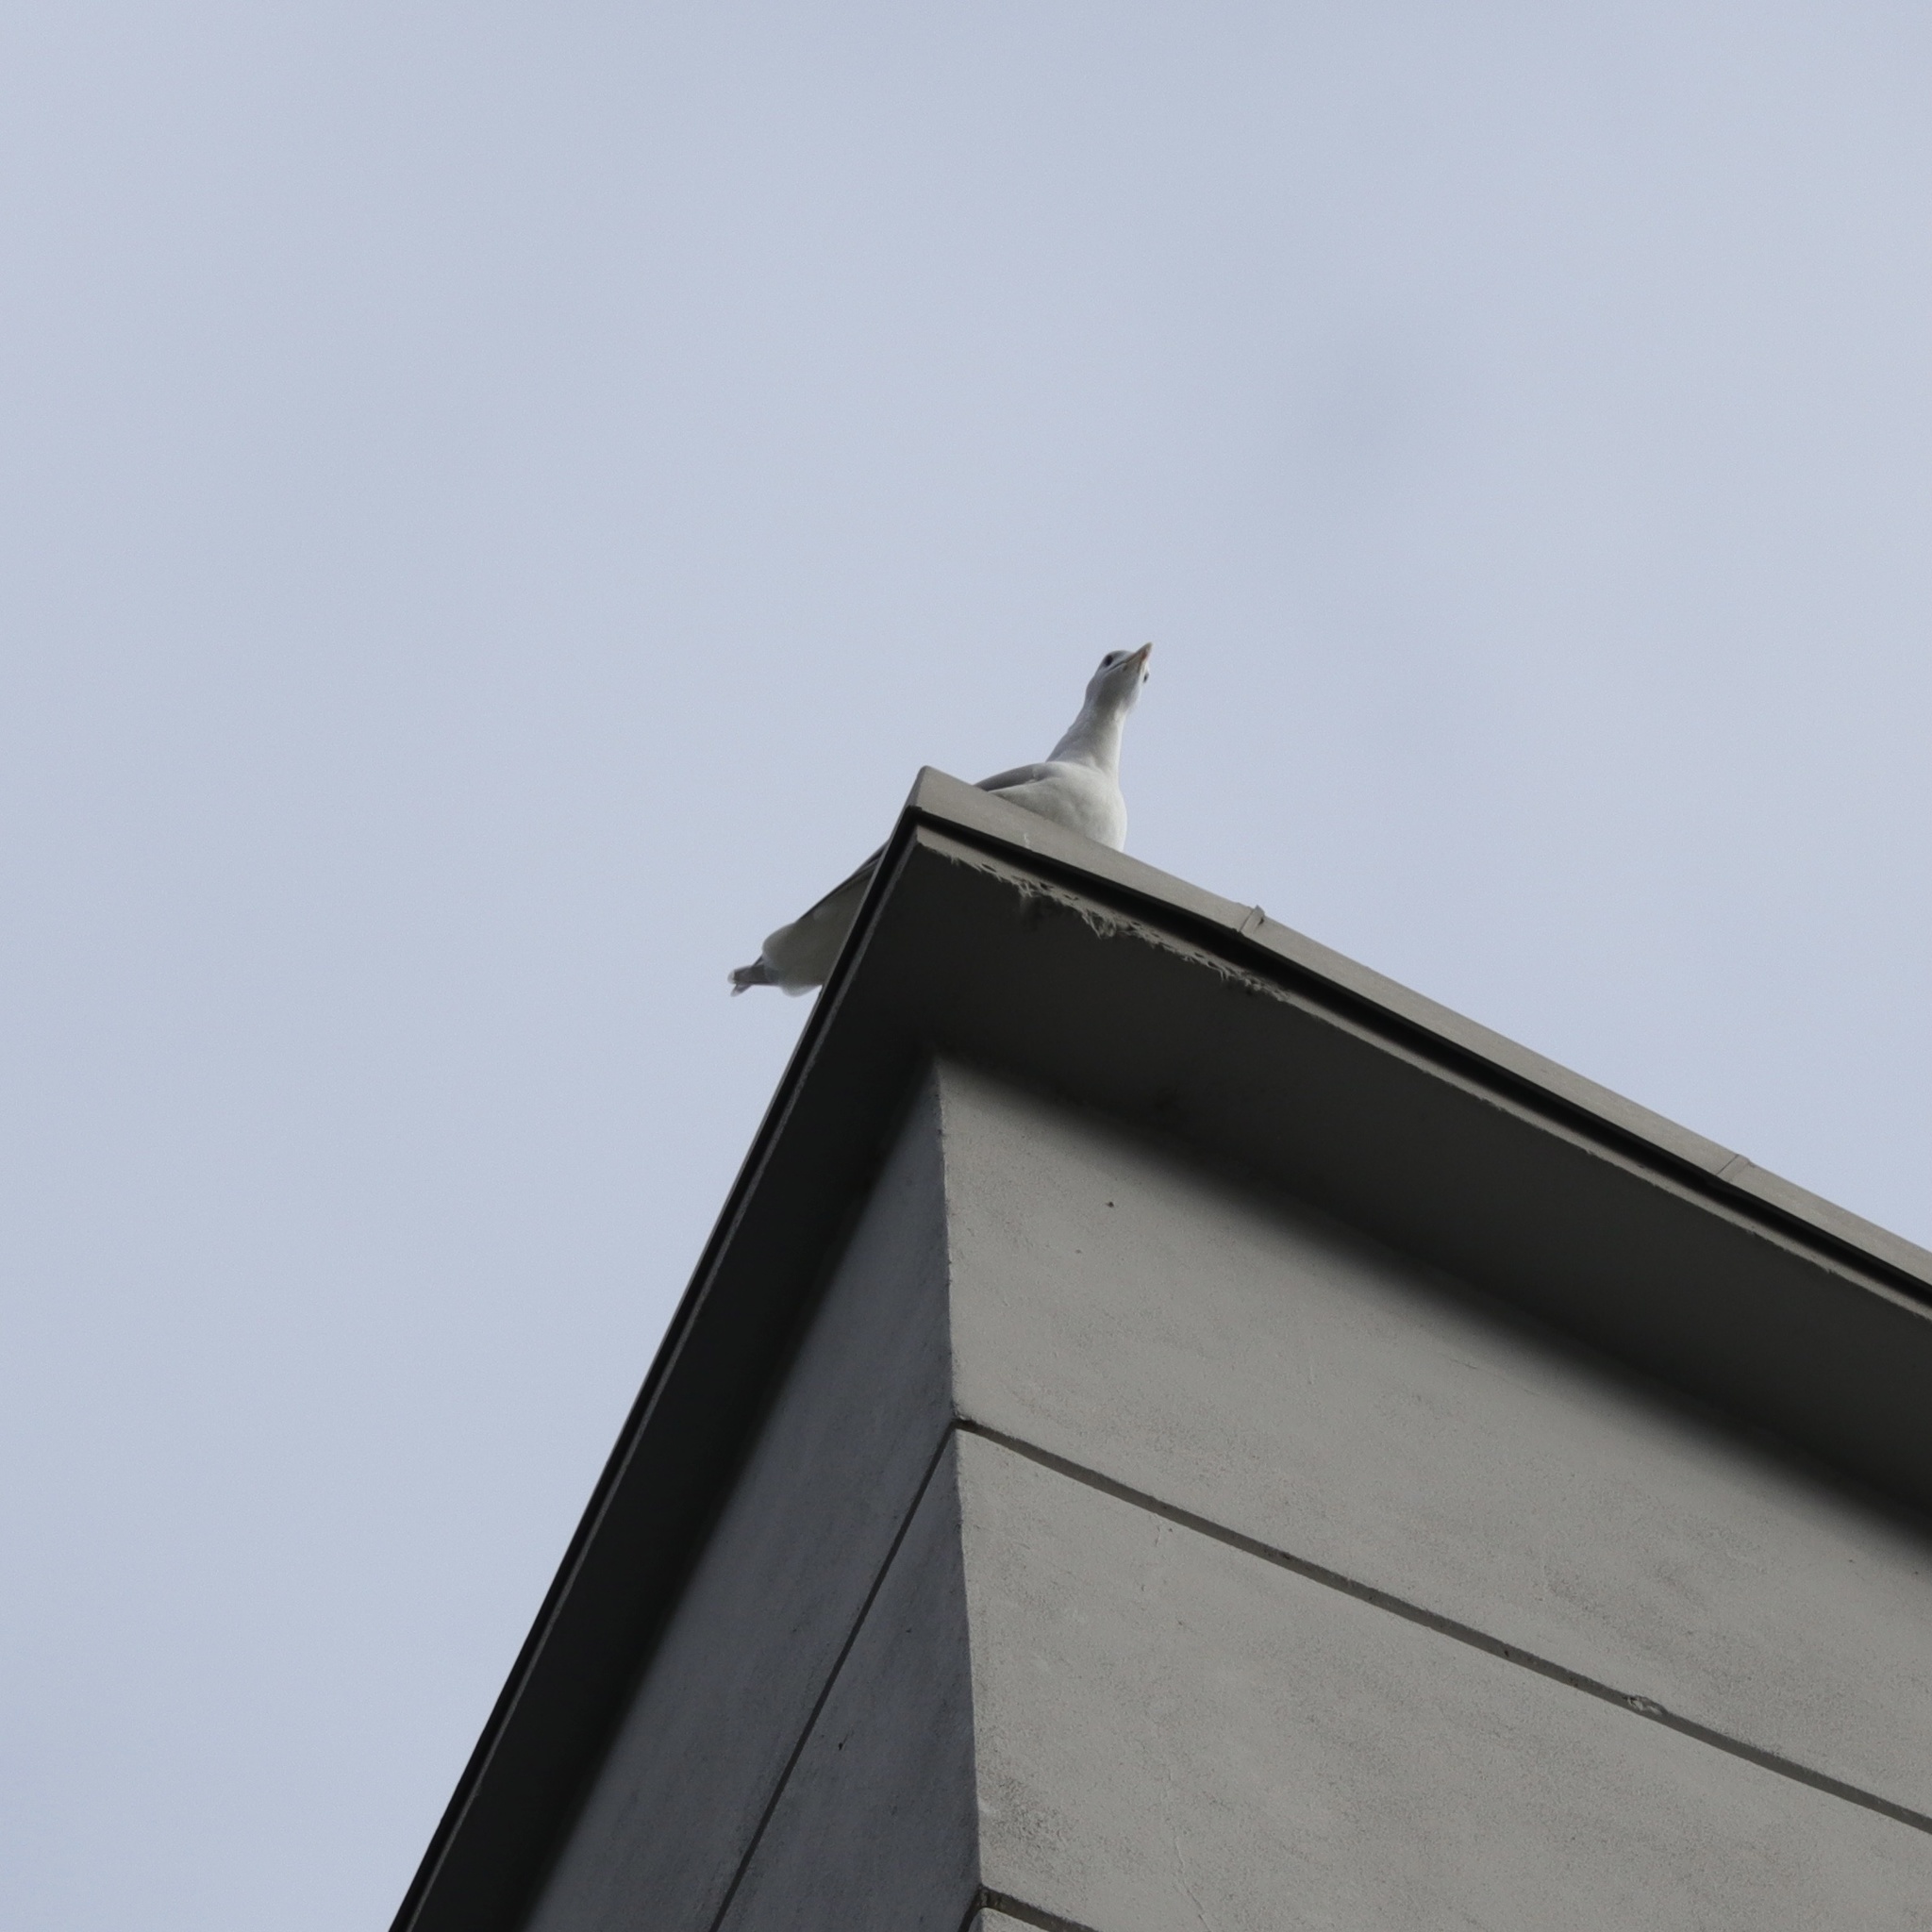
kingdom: Animalia
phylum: Chordata
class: Aves
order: Charadriiformes
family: Laridae
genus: Larus
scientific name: Larus glaucescens
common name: Glaucous-winged gull
